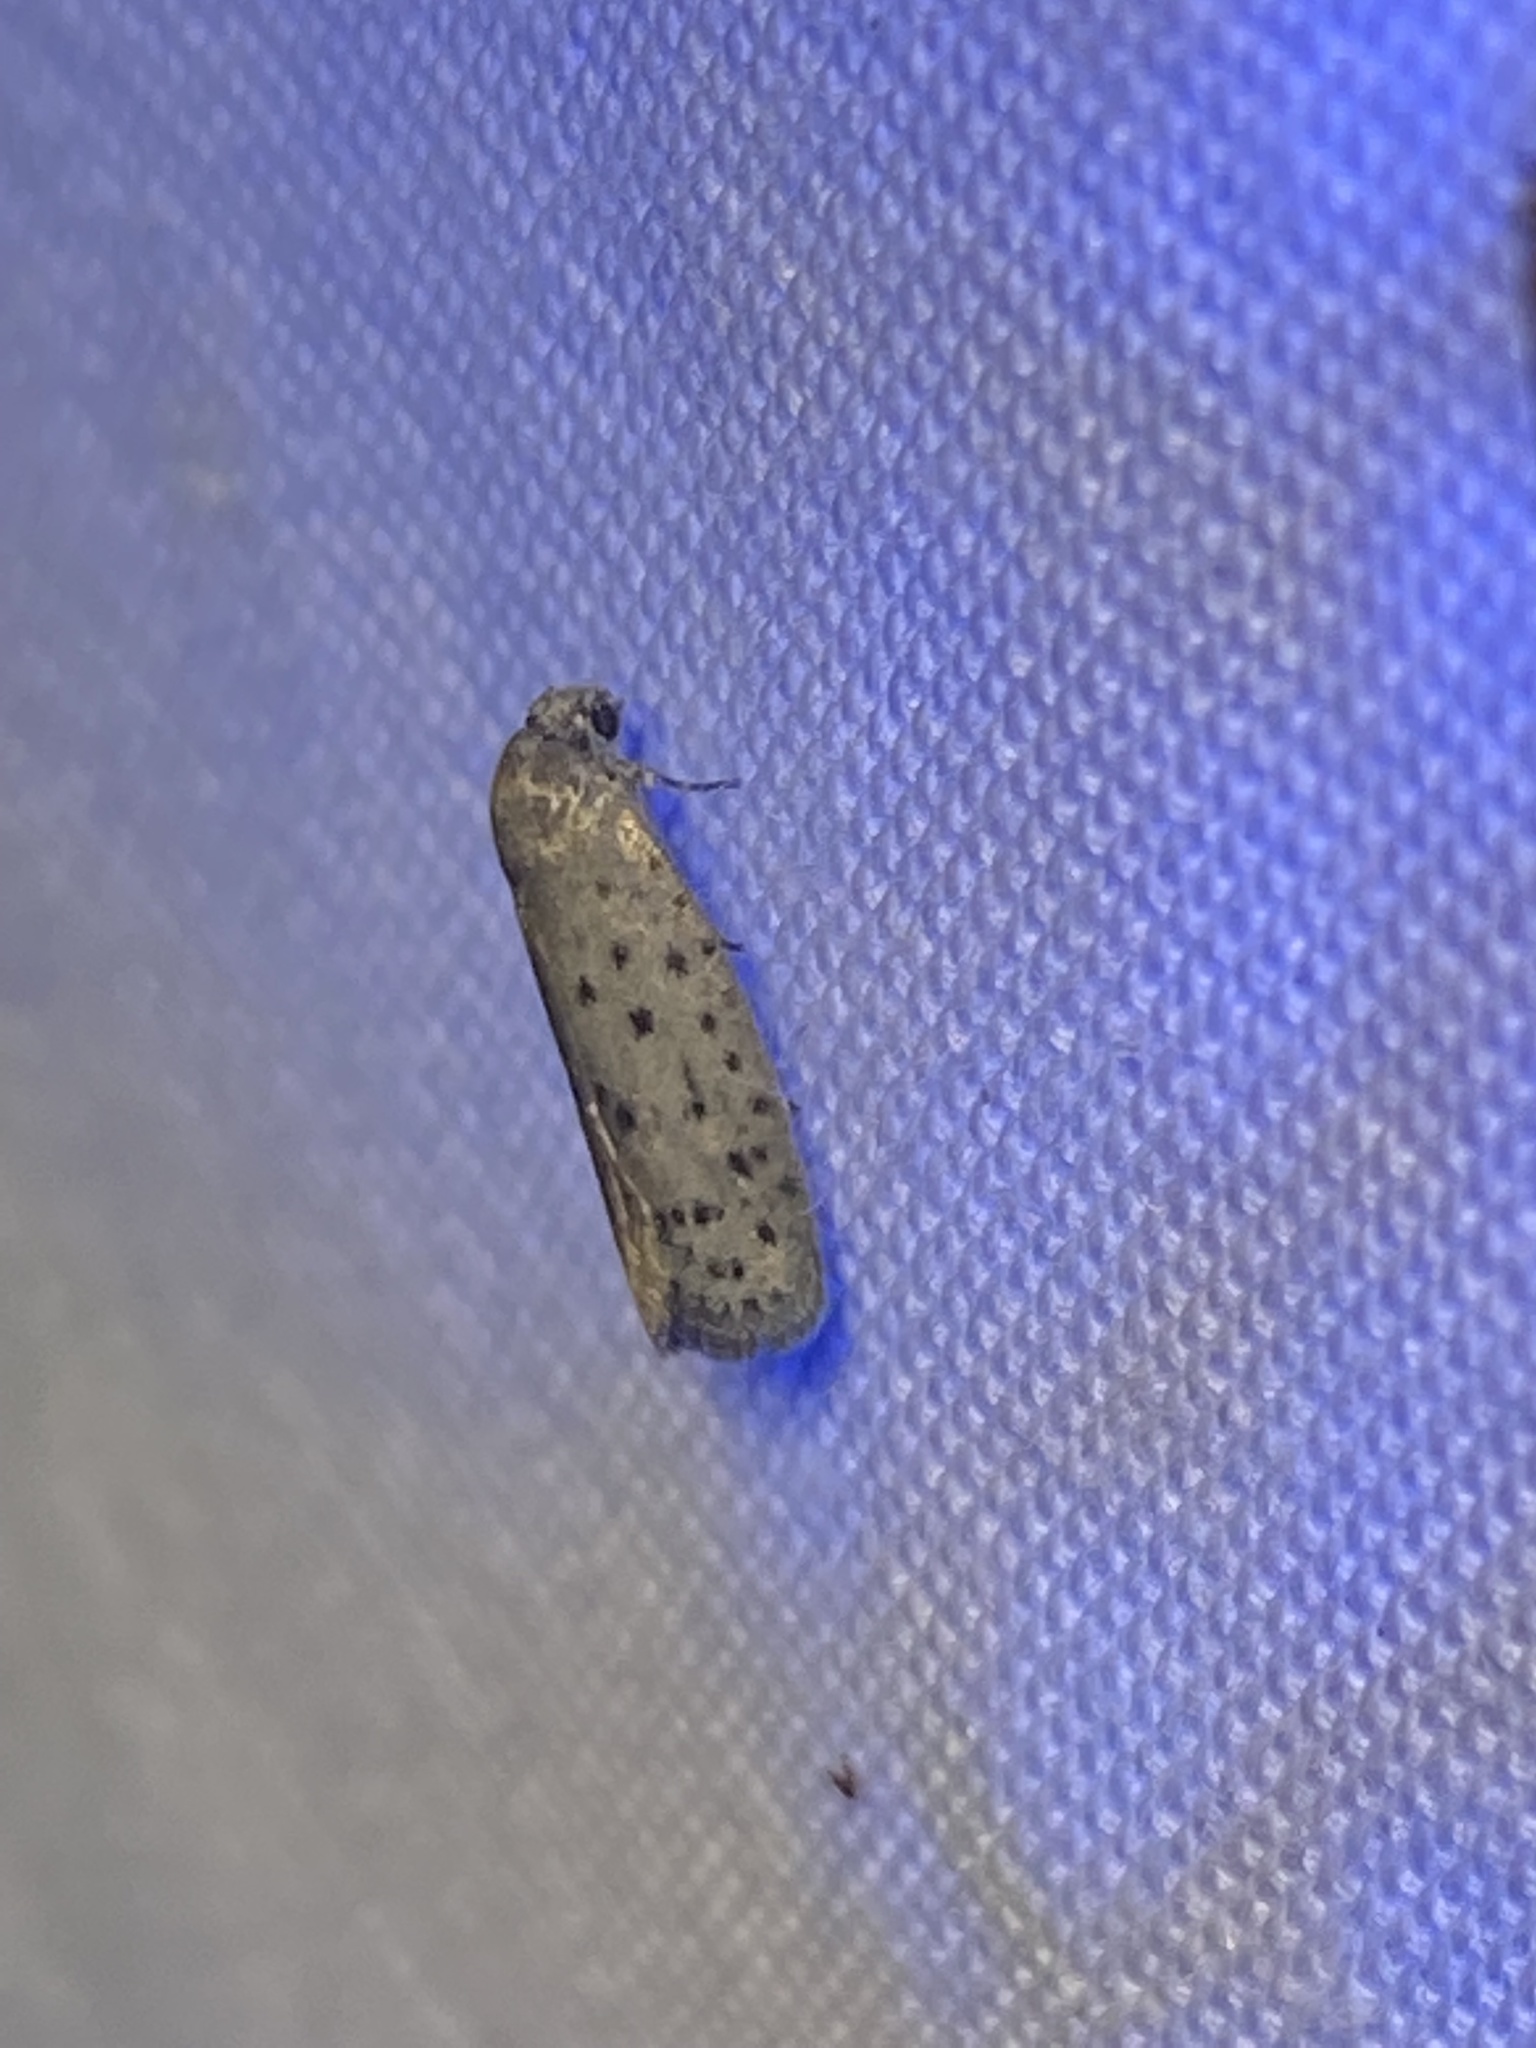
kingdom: Animalia
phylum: Arthropoda
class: Insecta
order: Lepidoptera
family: Galacticidae
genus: Homadaula
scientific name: Homadaula anisocentra
